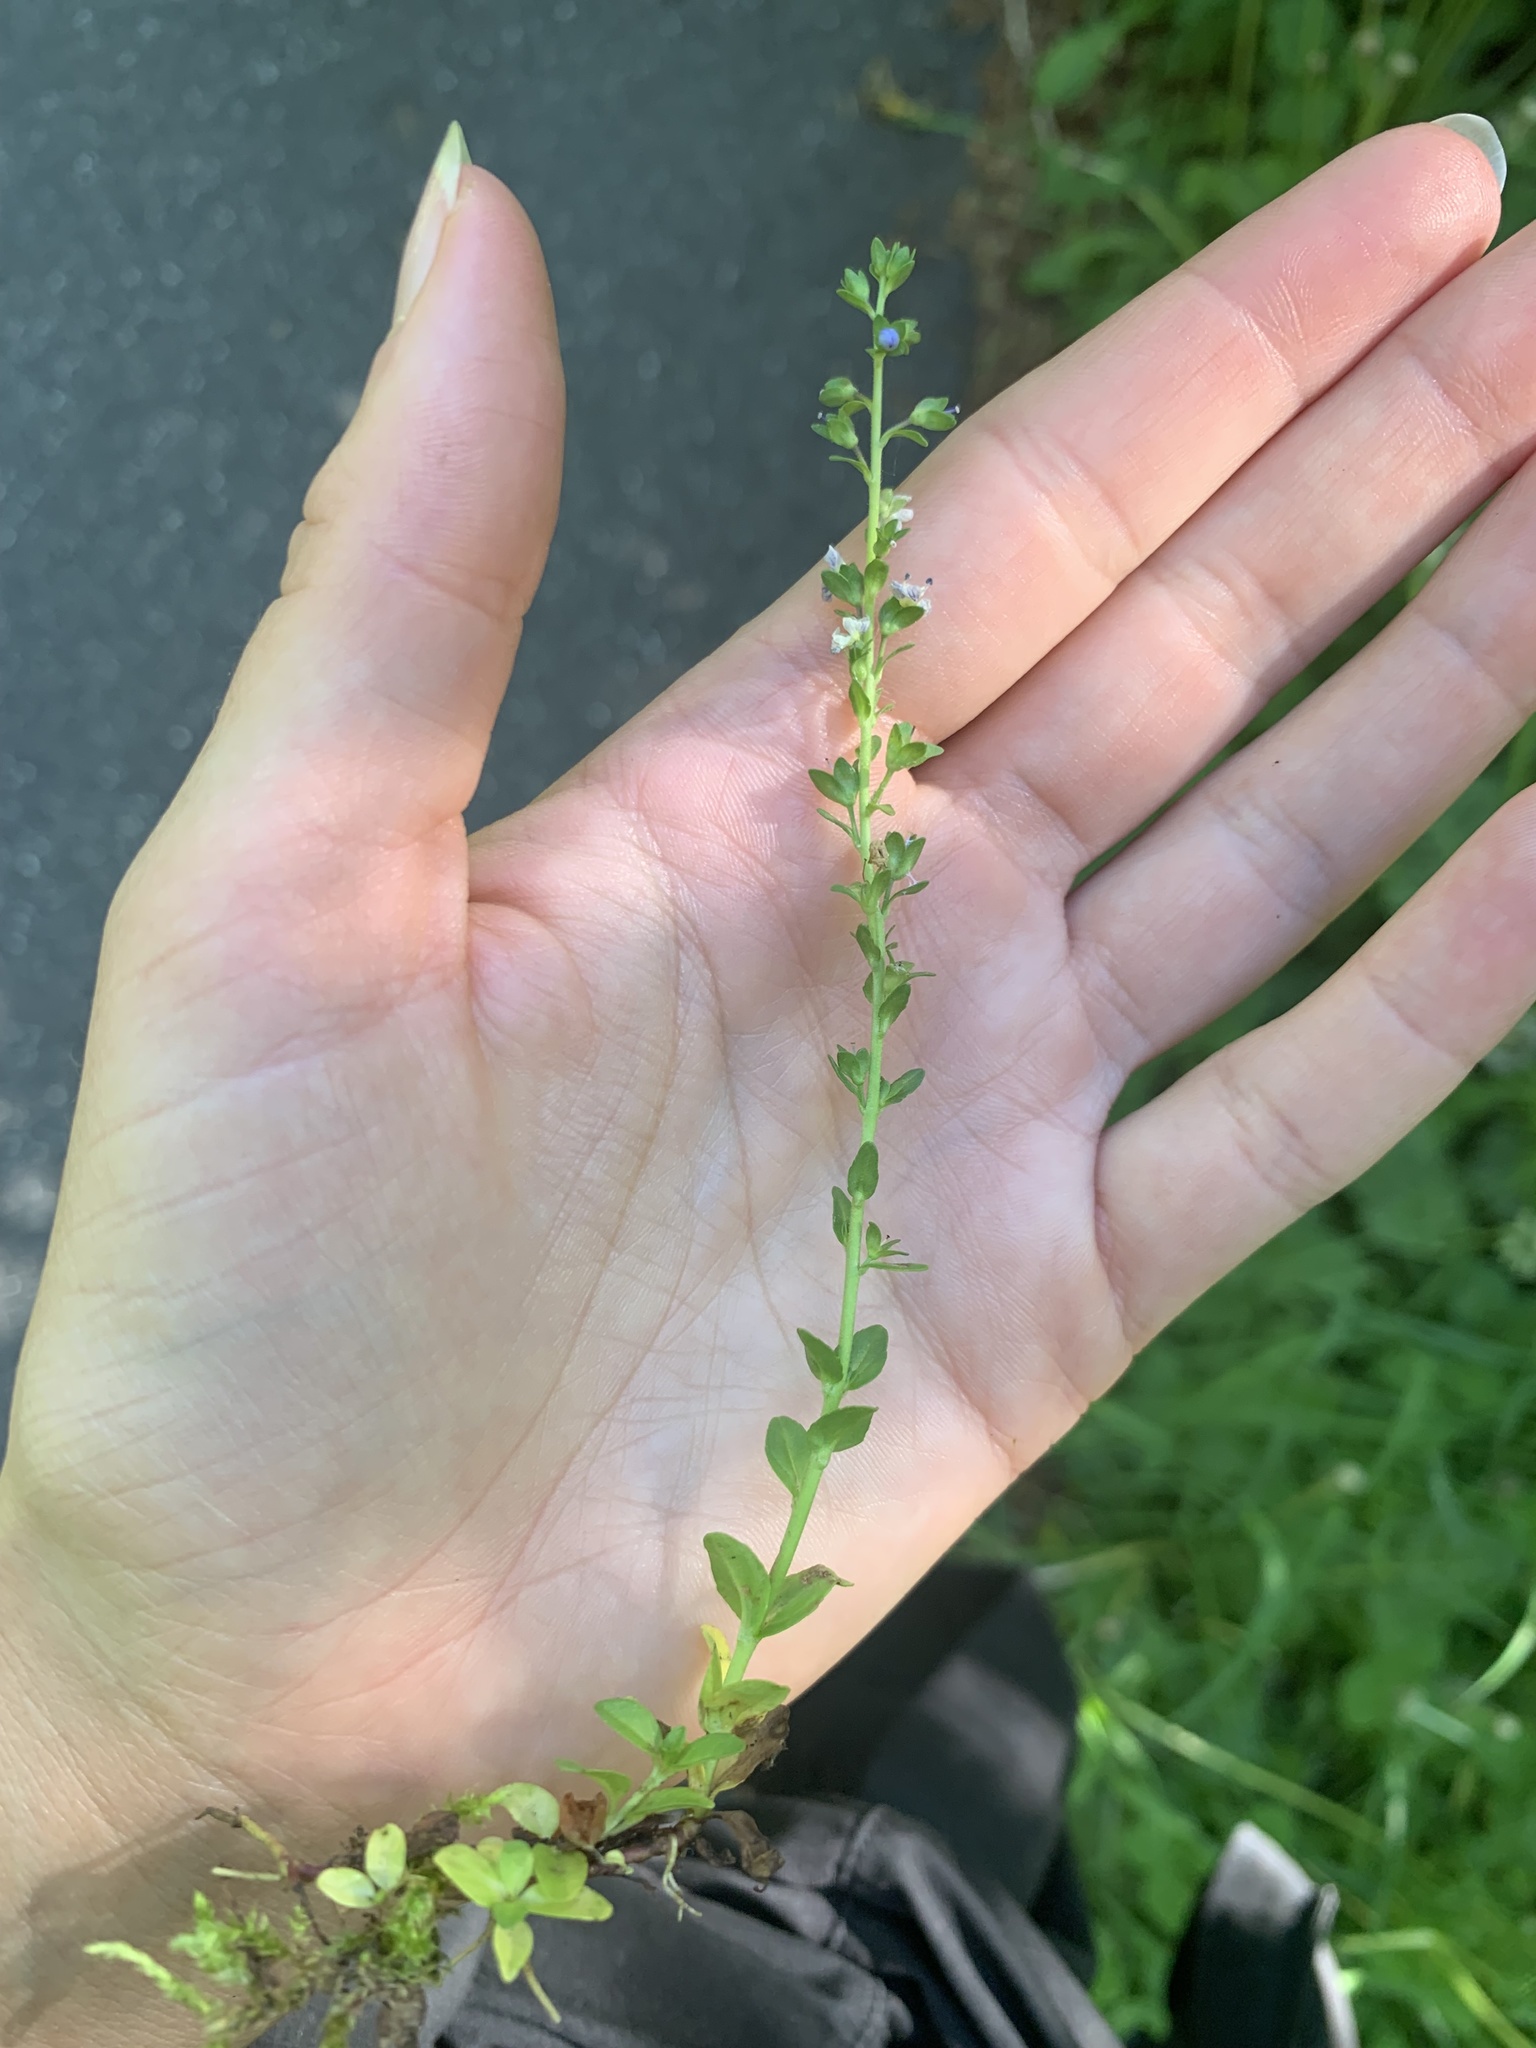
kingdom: Plantae
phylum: Tracheophyta
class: Magnoliopsida
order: Lamiales
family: Plantaginaceae
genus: Veronica
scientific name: Veronica serpyllifolia
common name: Thyme-leaved speedwell
